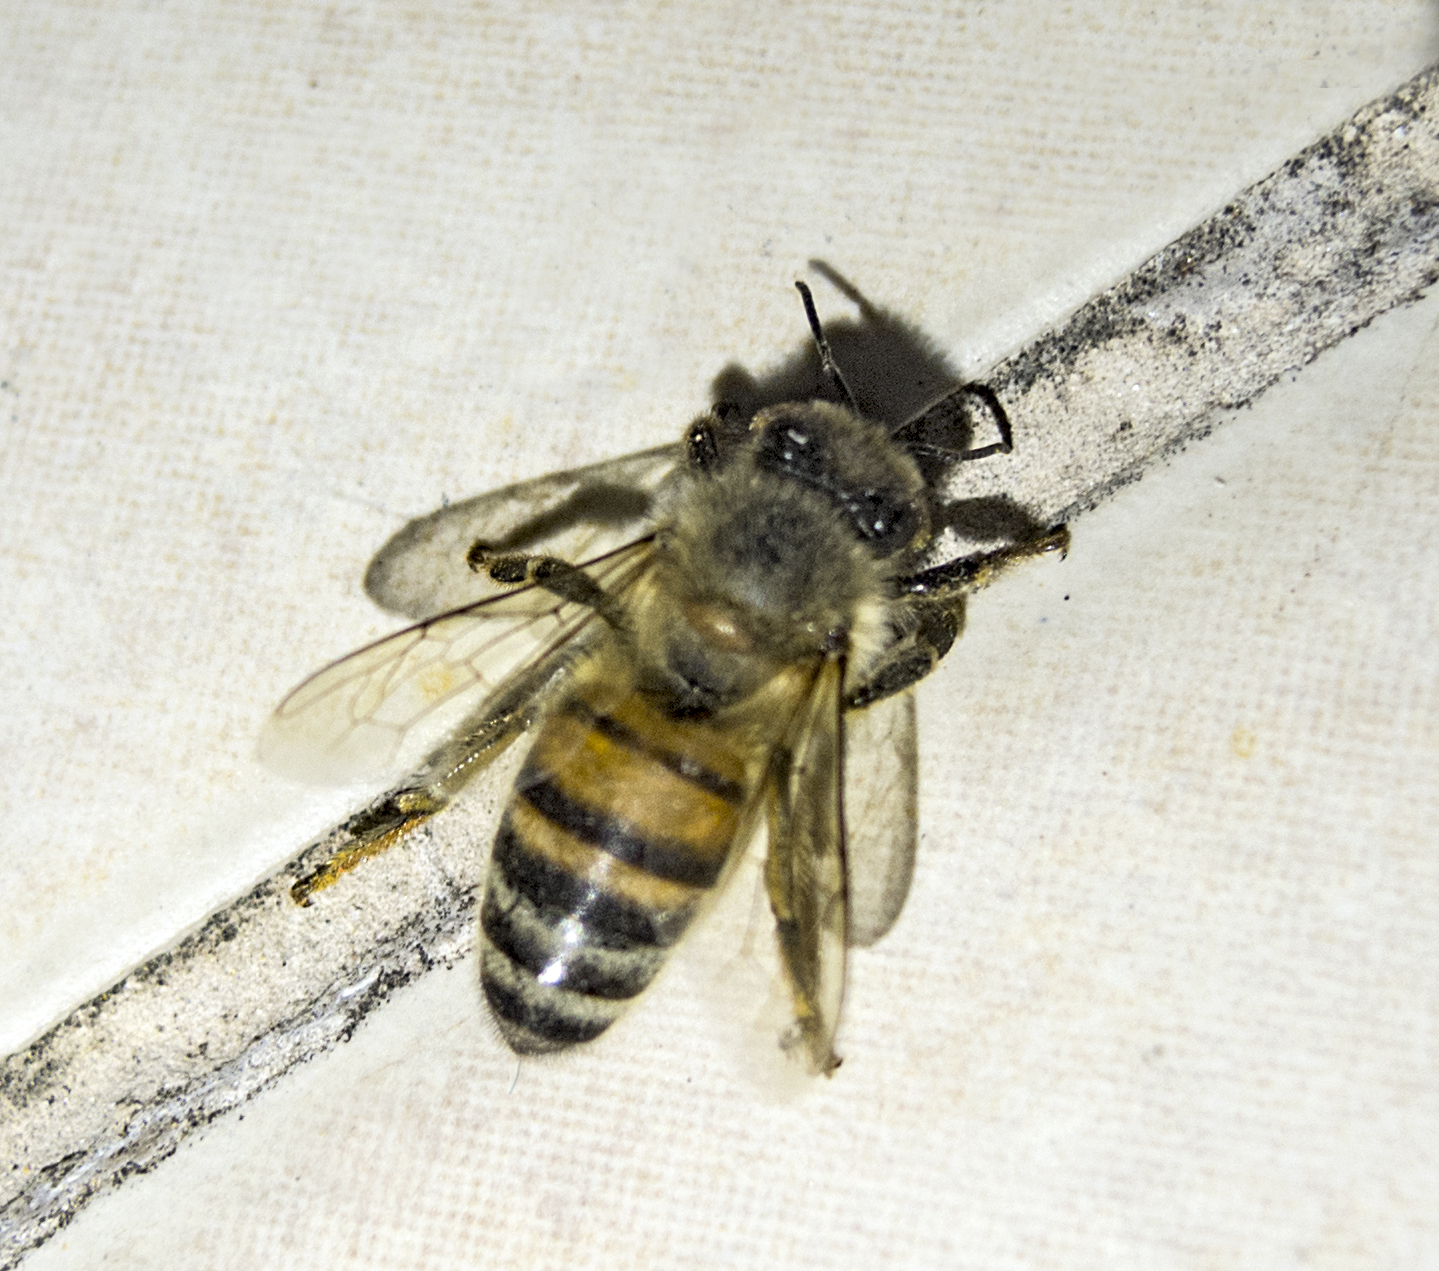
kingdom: Animalia
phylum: Arthropoda
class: Insecta
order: Hymenoptera
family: Apidae
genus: Apis
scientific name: Apis mellifera
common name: Honey bee
